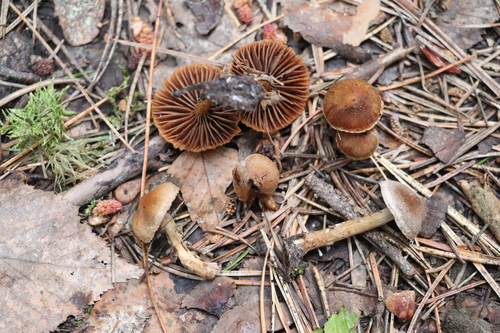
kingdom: Fungi
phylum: Basidiomycota
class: Agaricomycetes
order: Agaricales
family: Cortinariaceae
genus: Cortinarius
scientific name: Cortinarius parvannulatus
